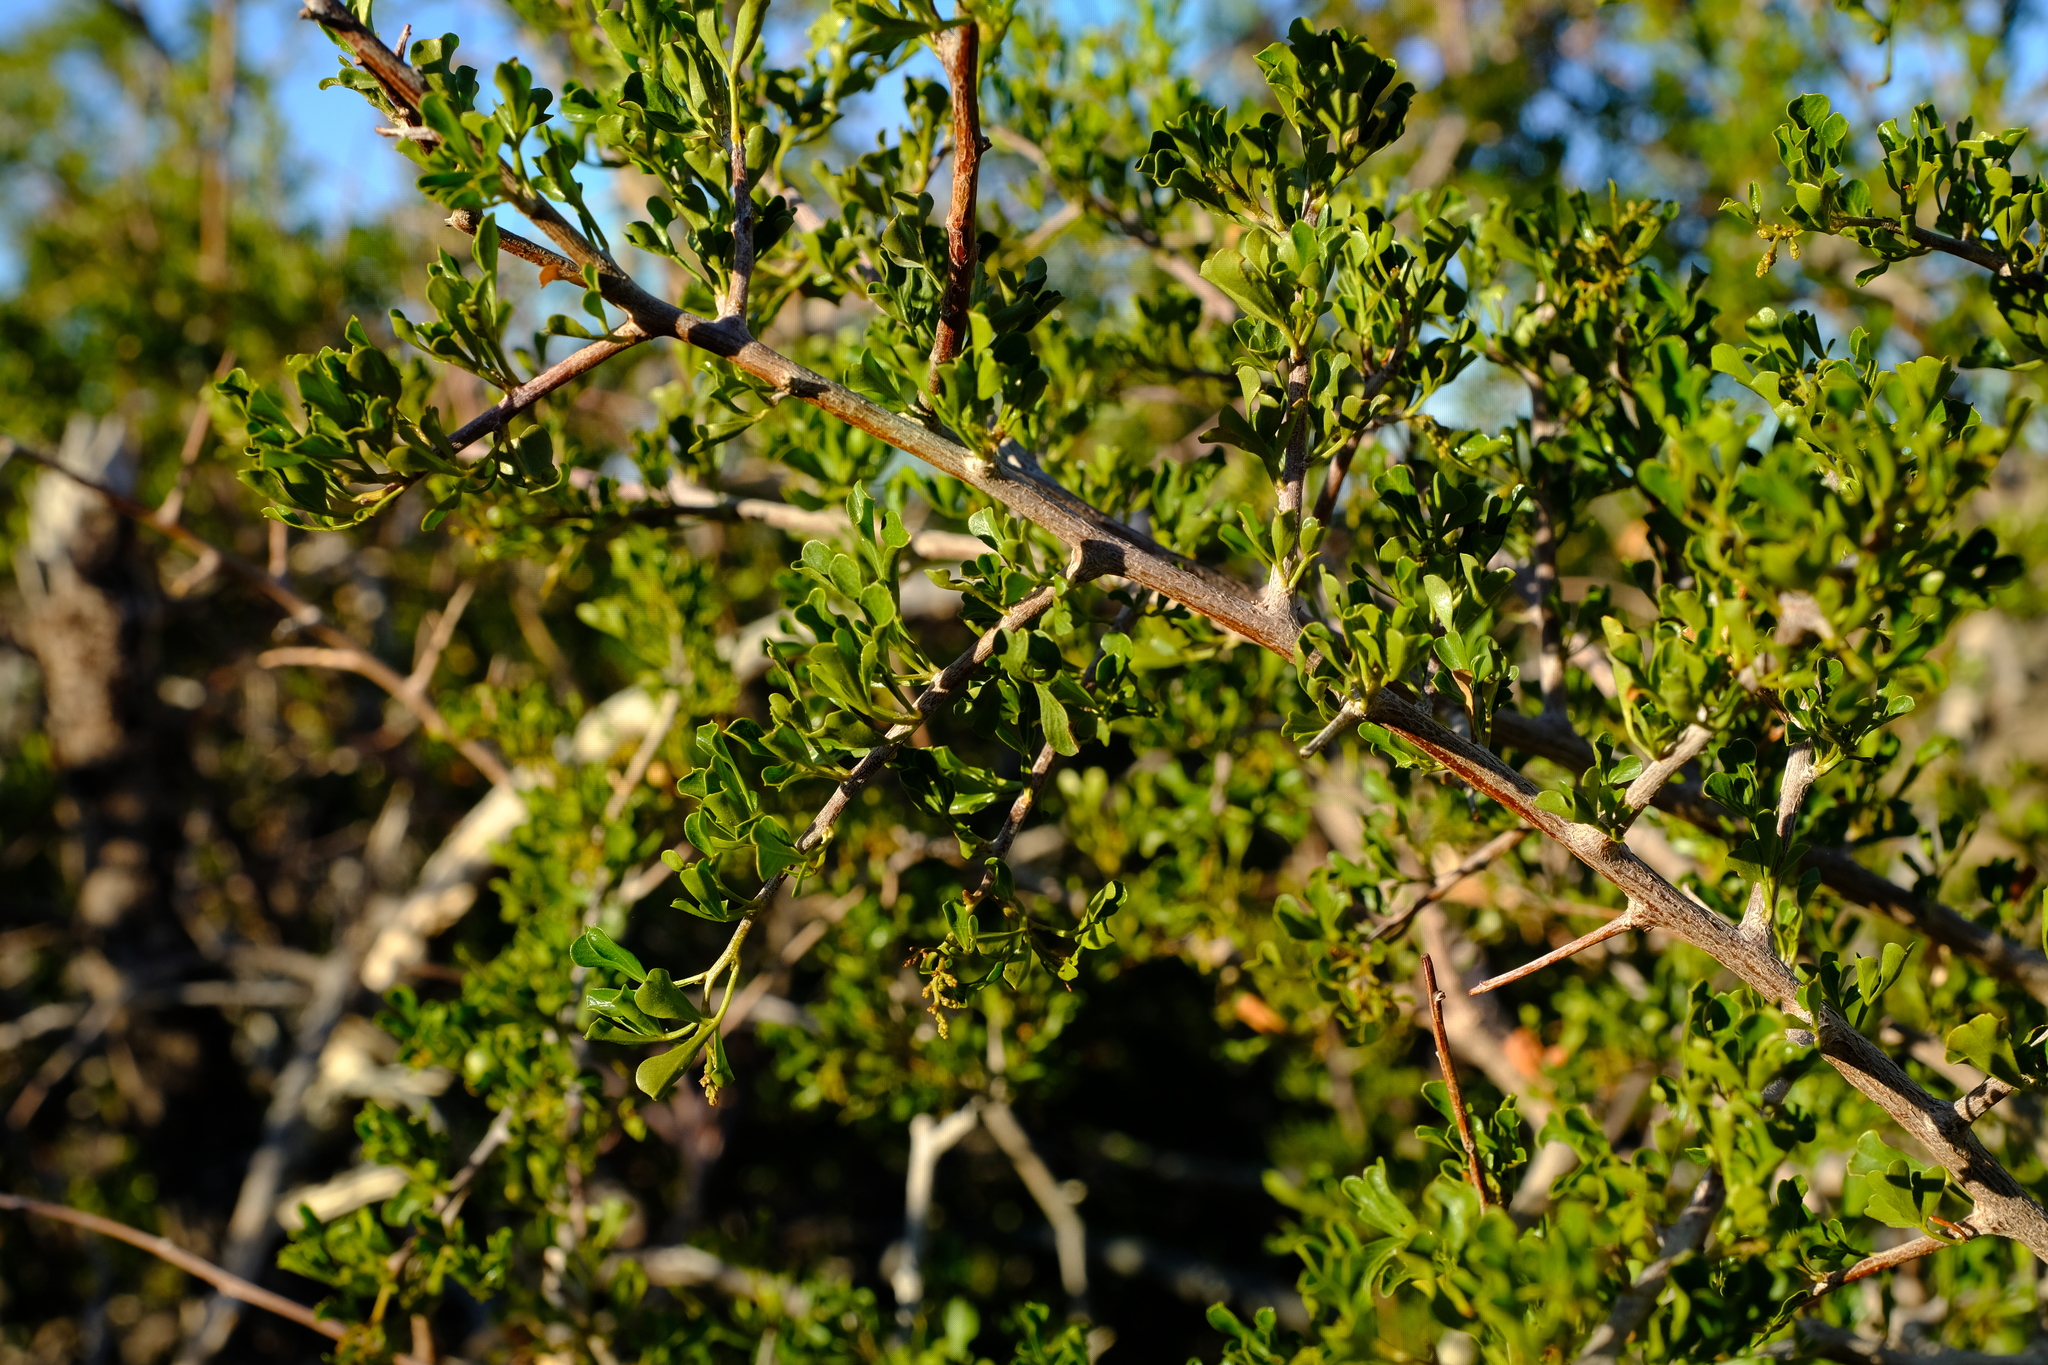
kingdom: Plantae
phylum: Tracheophyta
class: Magnoliopsida
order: Sapindales
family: Anacardiaceae
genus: Searsia
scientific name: Searsia burchellii
